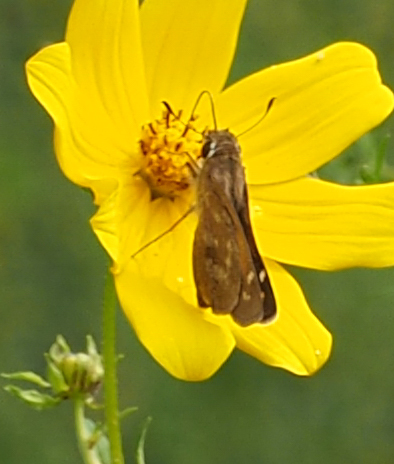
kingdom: Animalia
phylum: Arthropoda
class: Insecta
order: Lepidoptera
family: Hesperiidae
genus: Atalopedes
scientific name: Atalopedes
